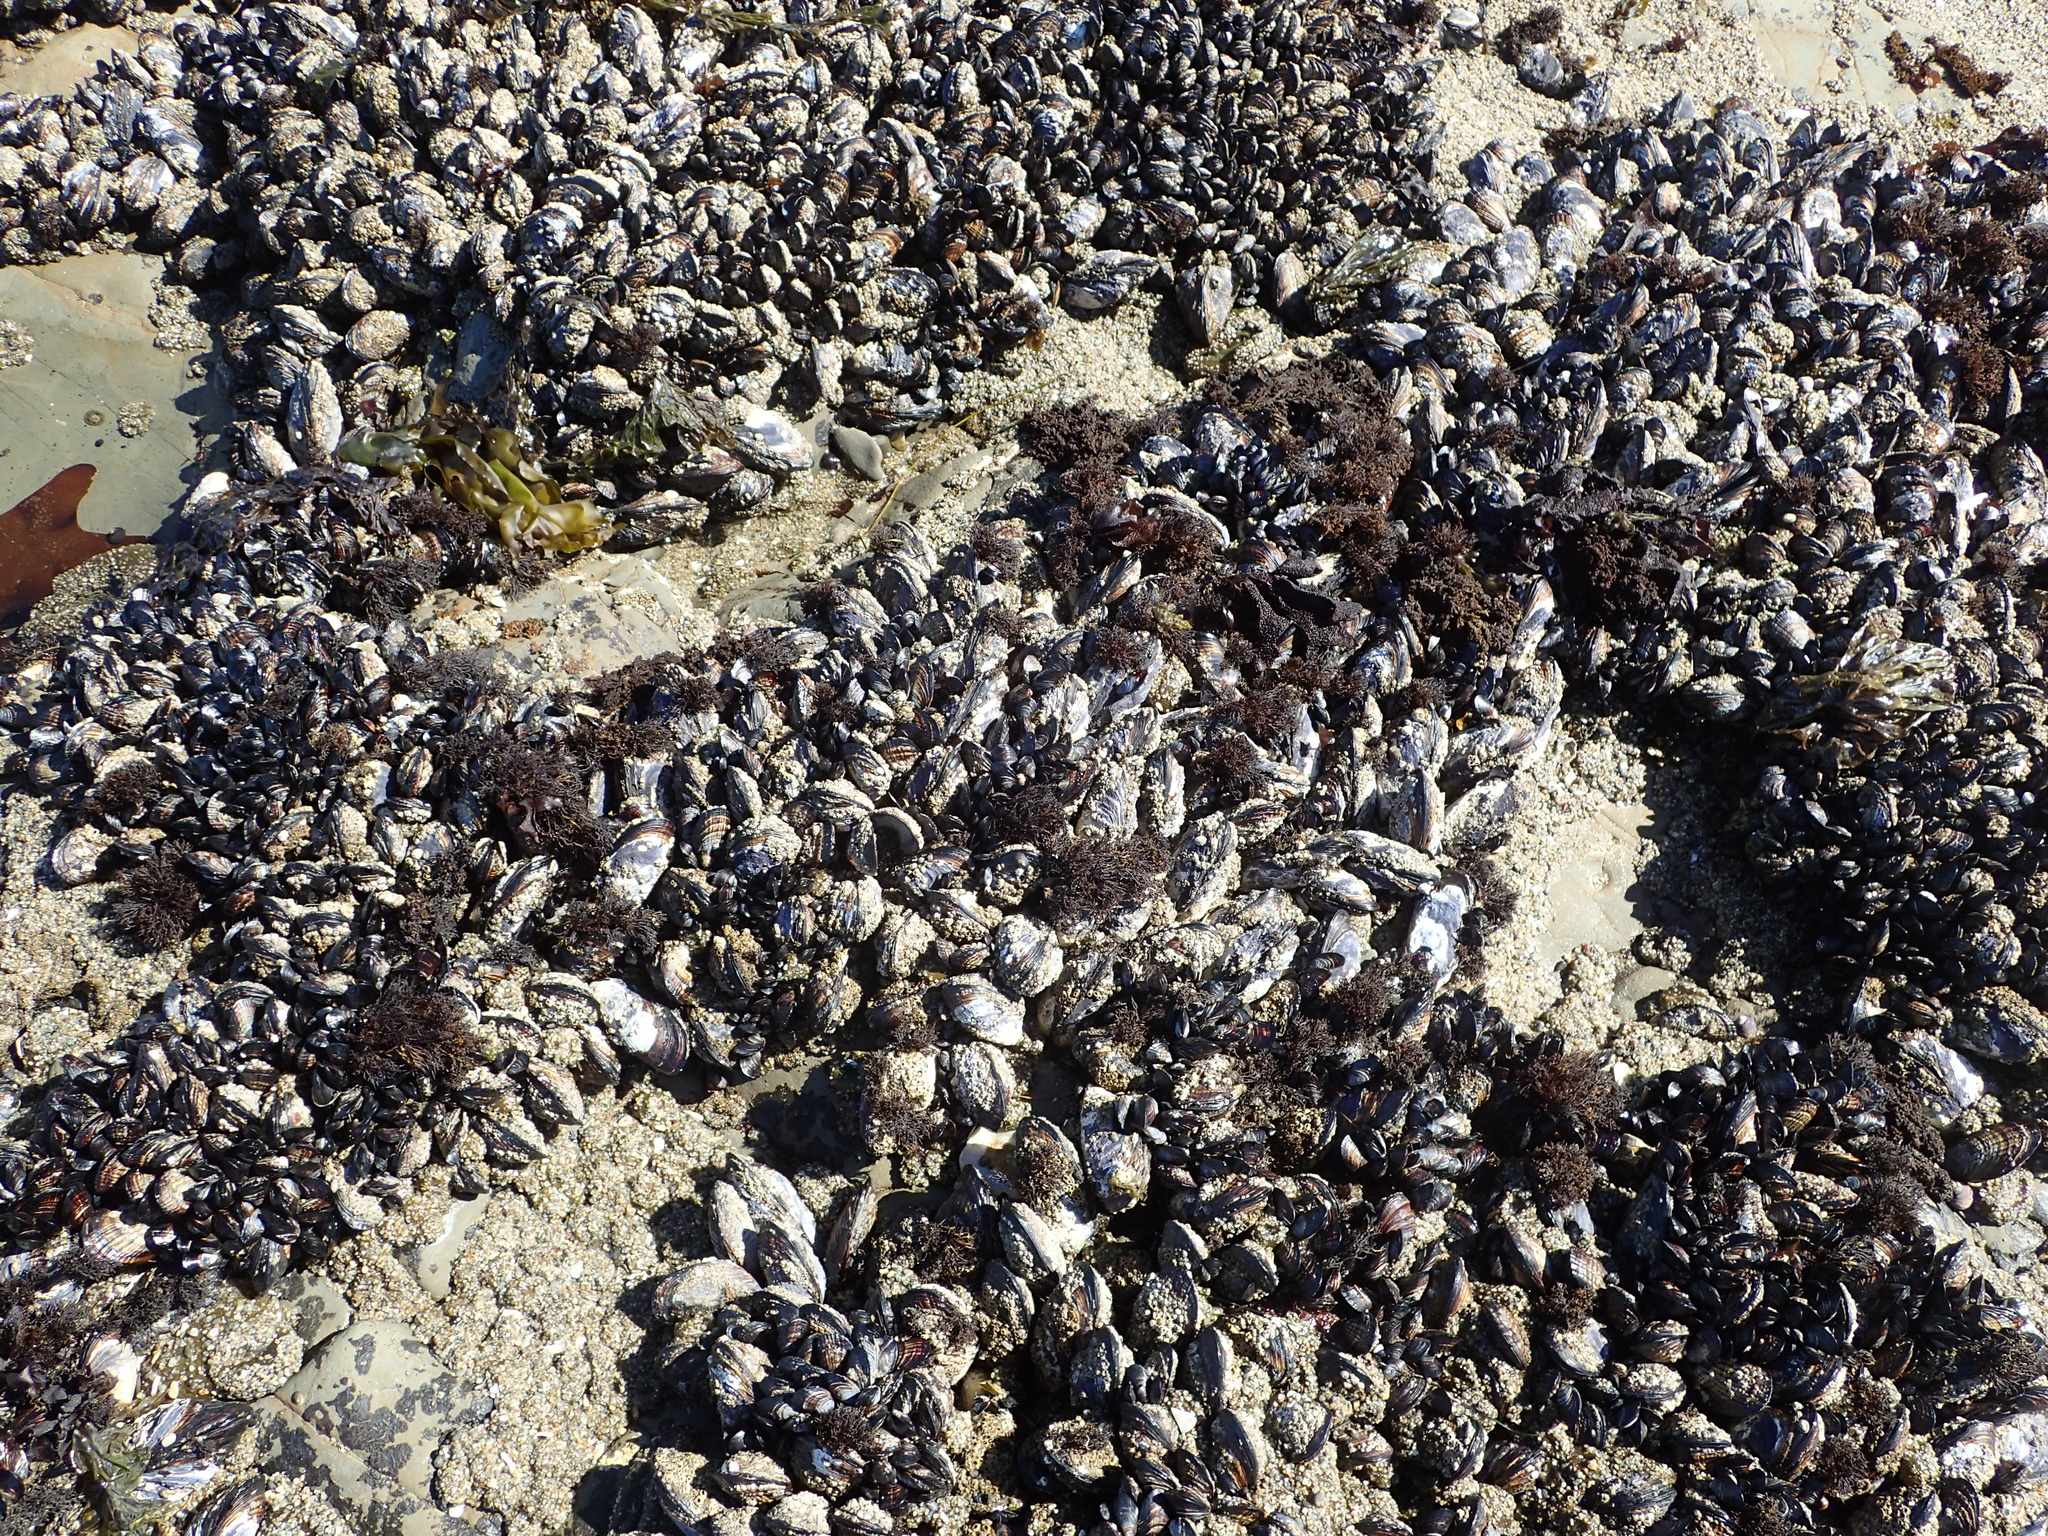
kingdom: Animalia
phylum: Mollusca
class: Bivalvia
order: Mytilida
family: Mytilidae
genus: Mytilus
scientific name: Mytilus californianus
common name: California mussel
